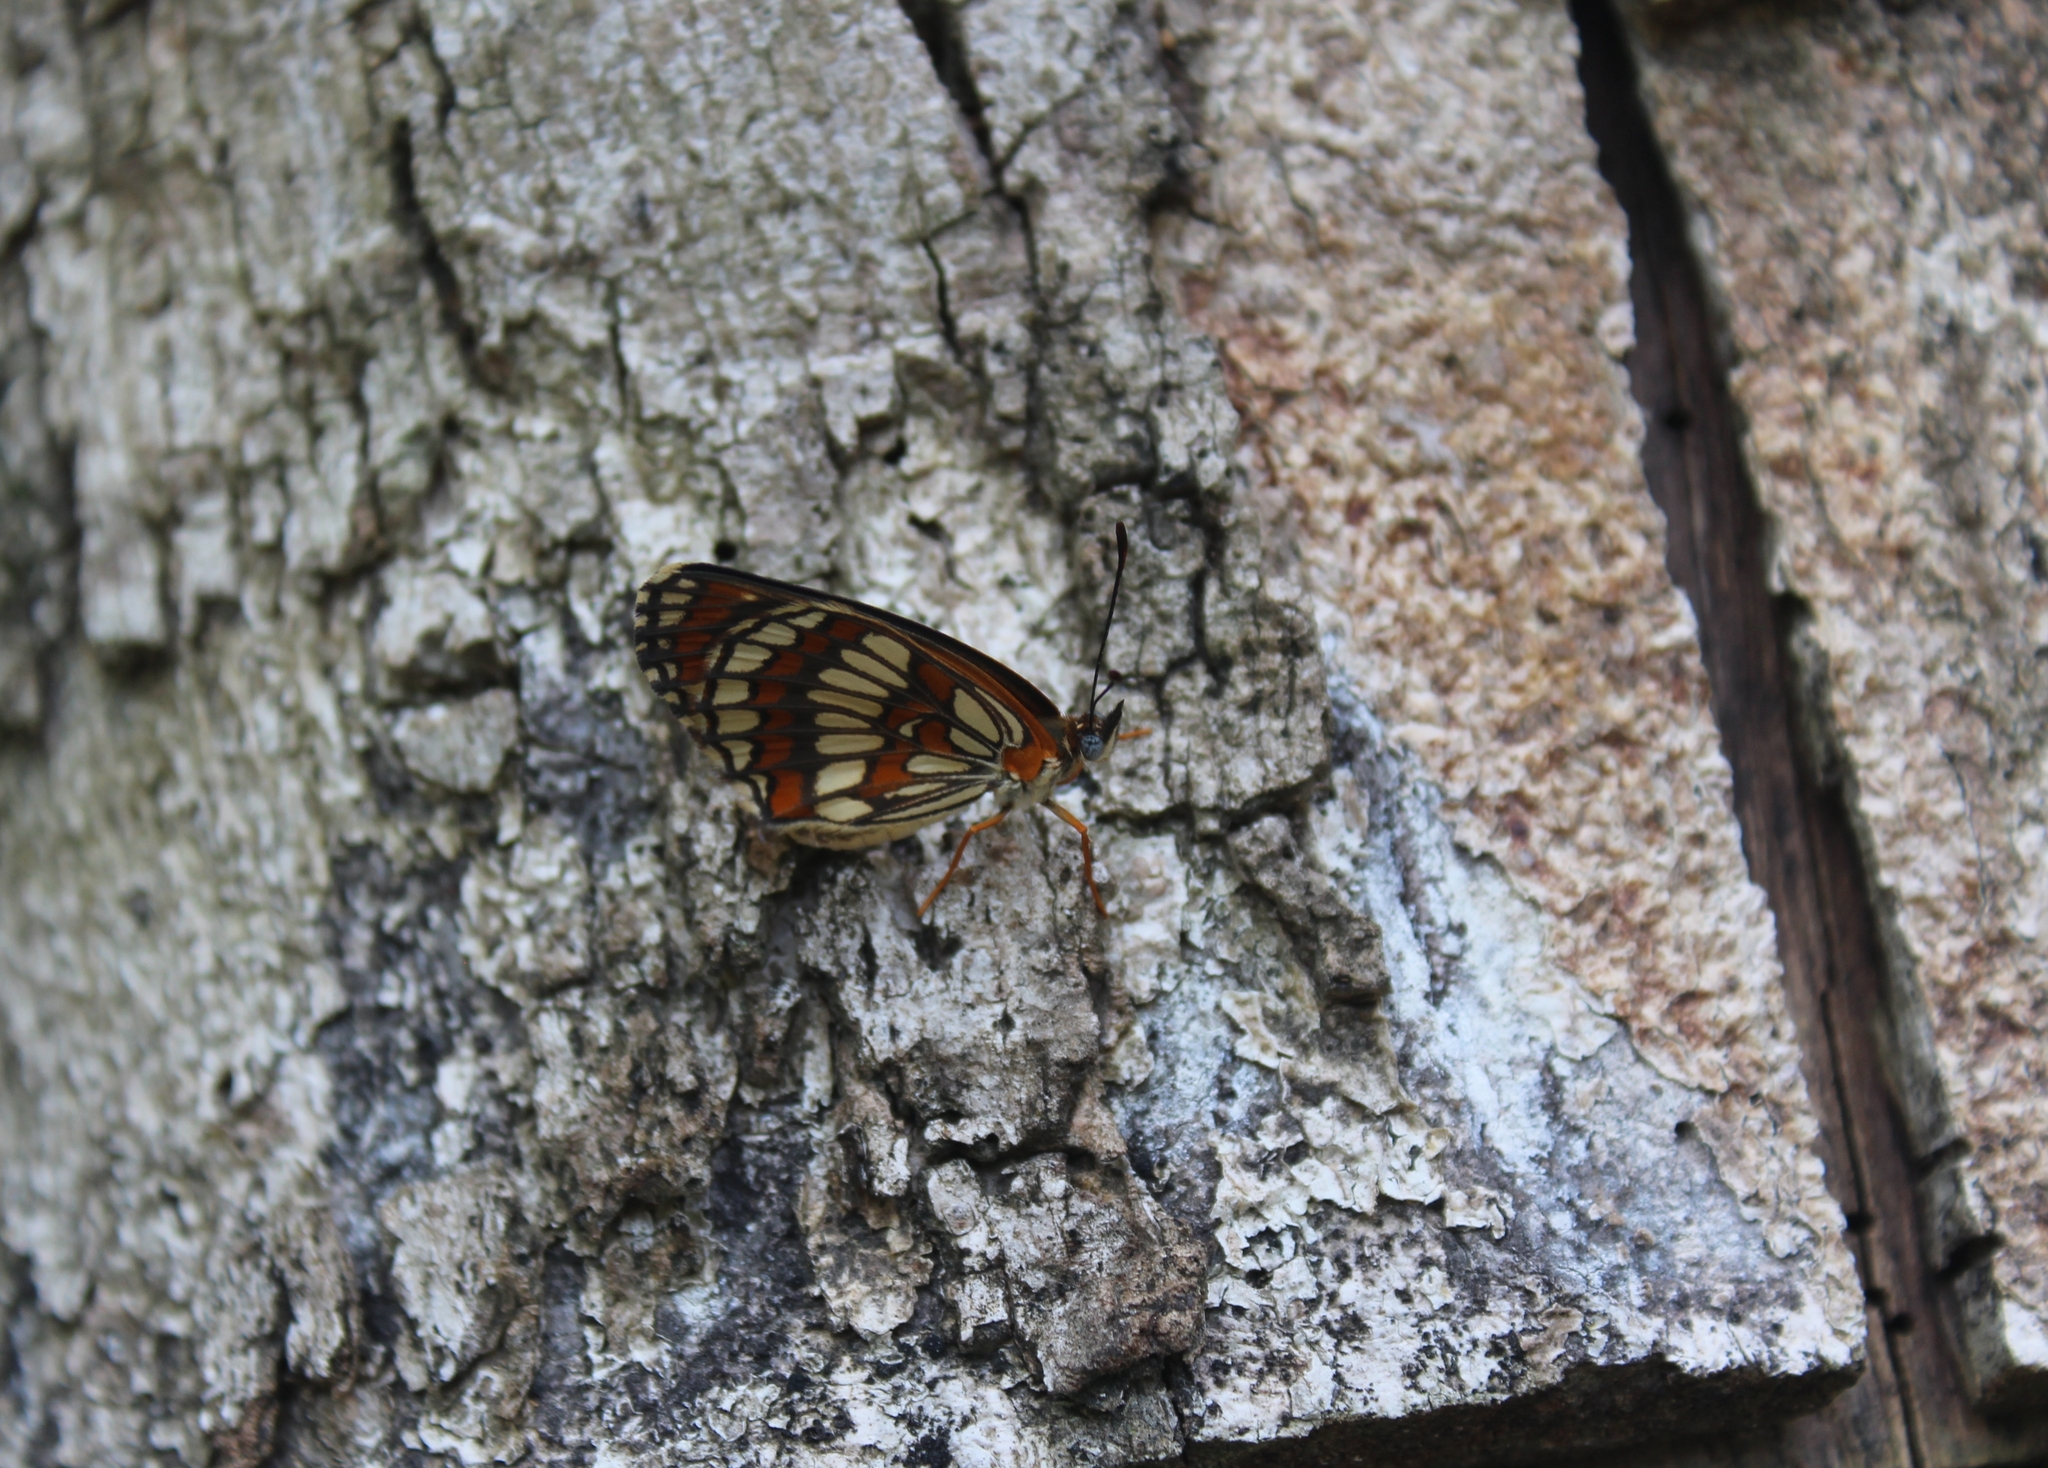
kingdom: Animalia
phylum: Arthropoda
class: Insecta
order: Lepidoptera
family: Nymphalidae
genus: Thessalia
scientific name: Thessalia theona
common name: Nymphalid moth
